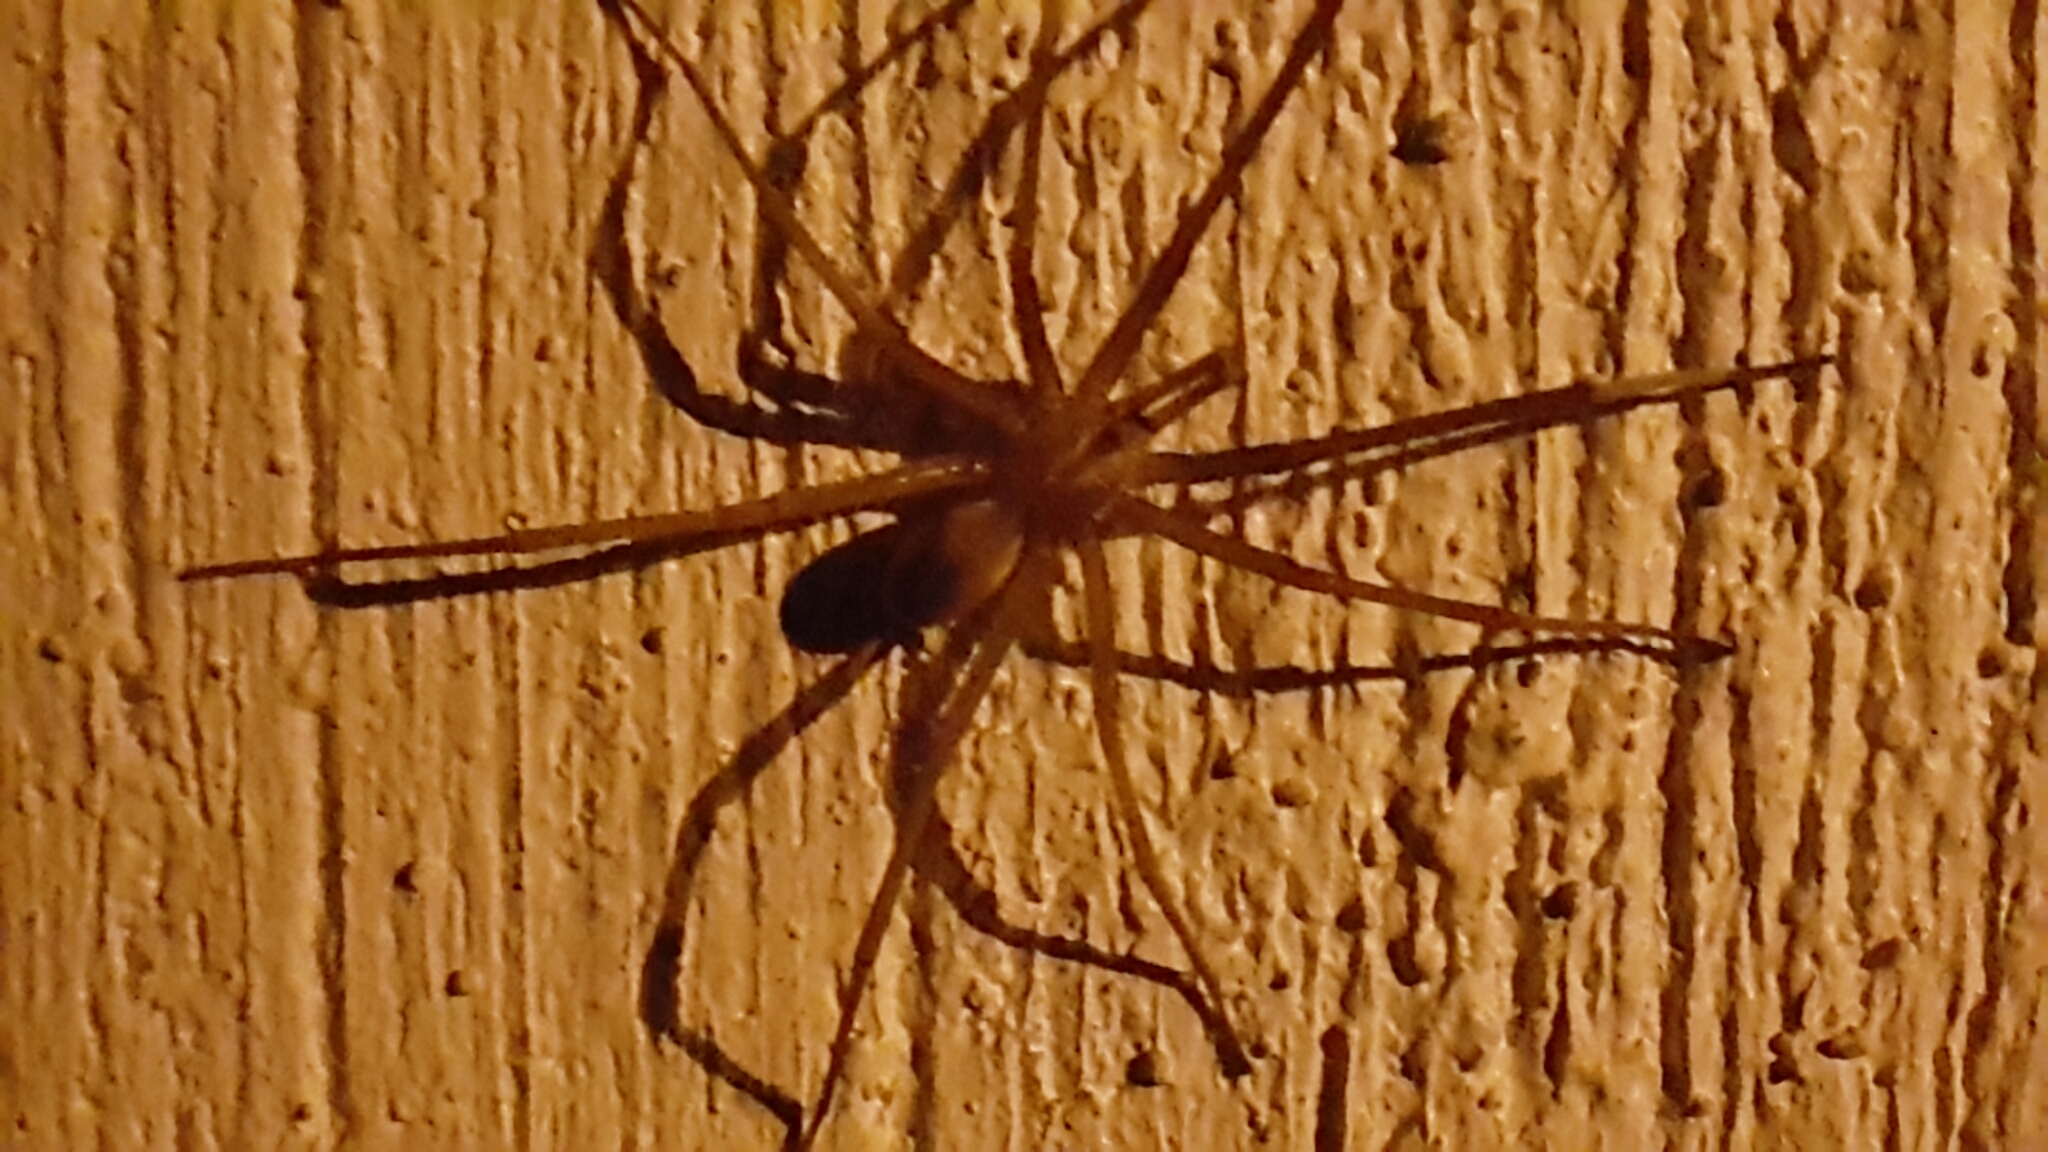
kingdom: Animalia
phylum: Arthropoda
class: Arachnida
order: Araneae
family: Filistatidae
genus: Kukulcania
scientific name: Kukulcania hibernalis
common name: Crevice weaver
